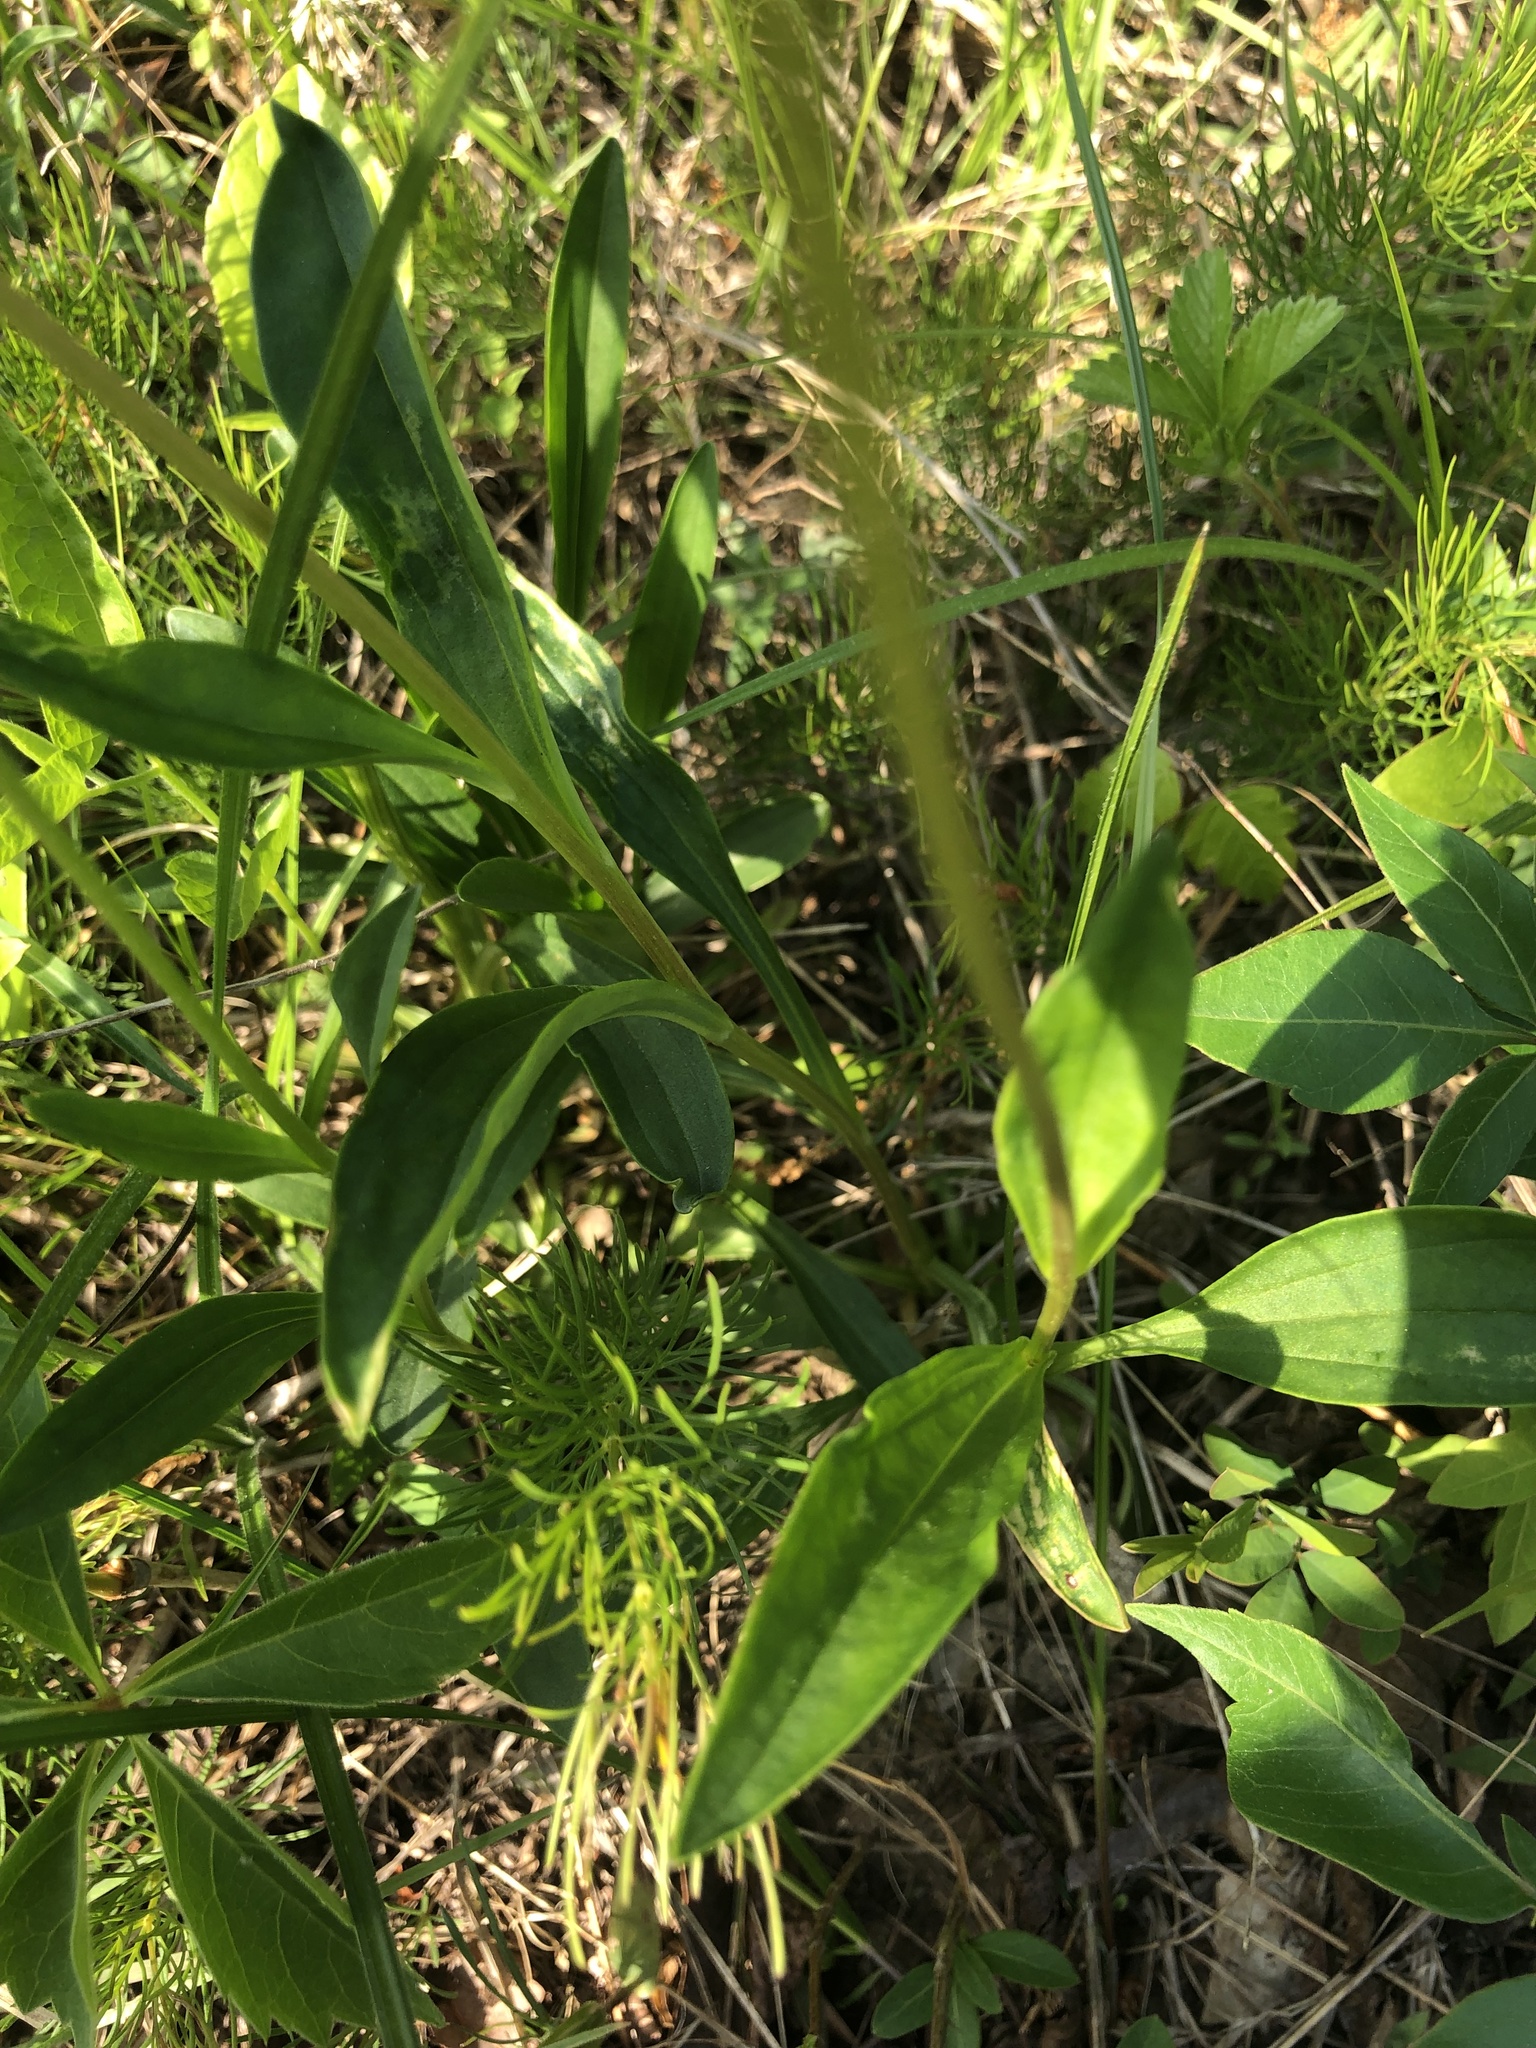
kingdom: Plantae
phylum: Tracheophyta
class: Magnoliopsida
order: Asterales
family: Asteraceae
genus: Marshallia
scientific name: Marshallia obovata
